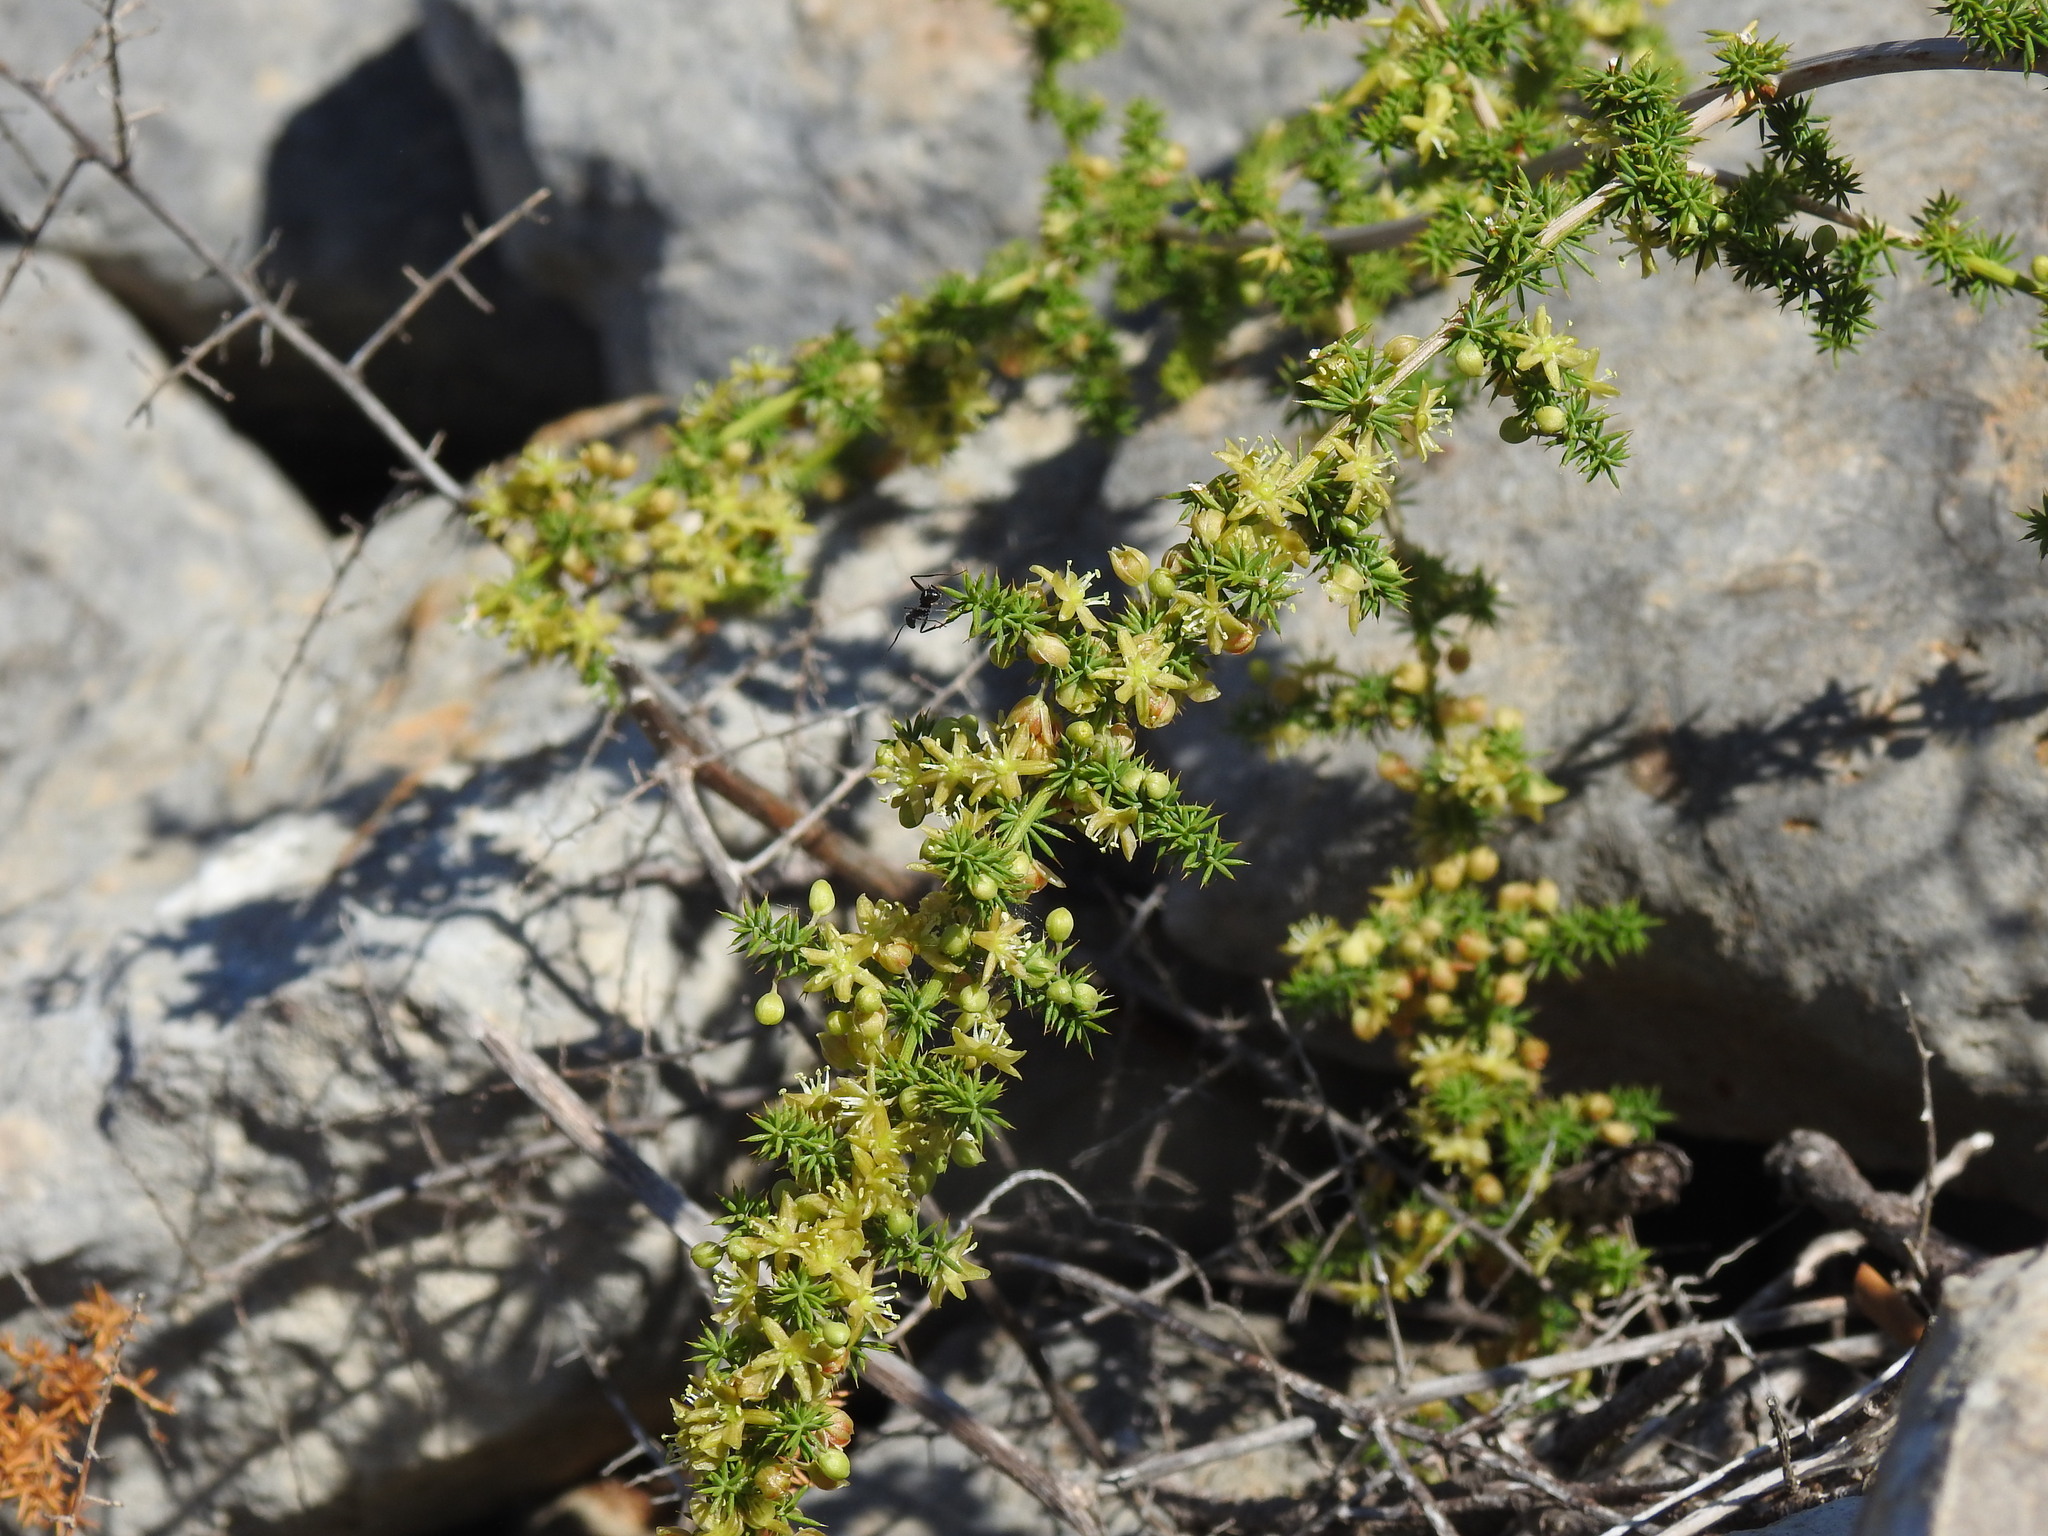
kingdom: Plantae
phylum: Tracheophyta
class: Liliopsida
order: Asparagales
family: Asparagaceae
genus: Asparagus
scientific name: Asparagus acutifolius
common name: Wild asparagus
